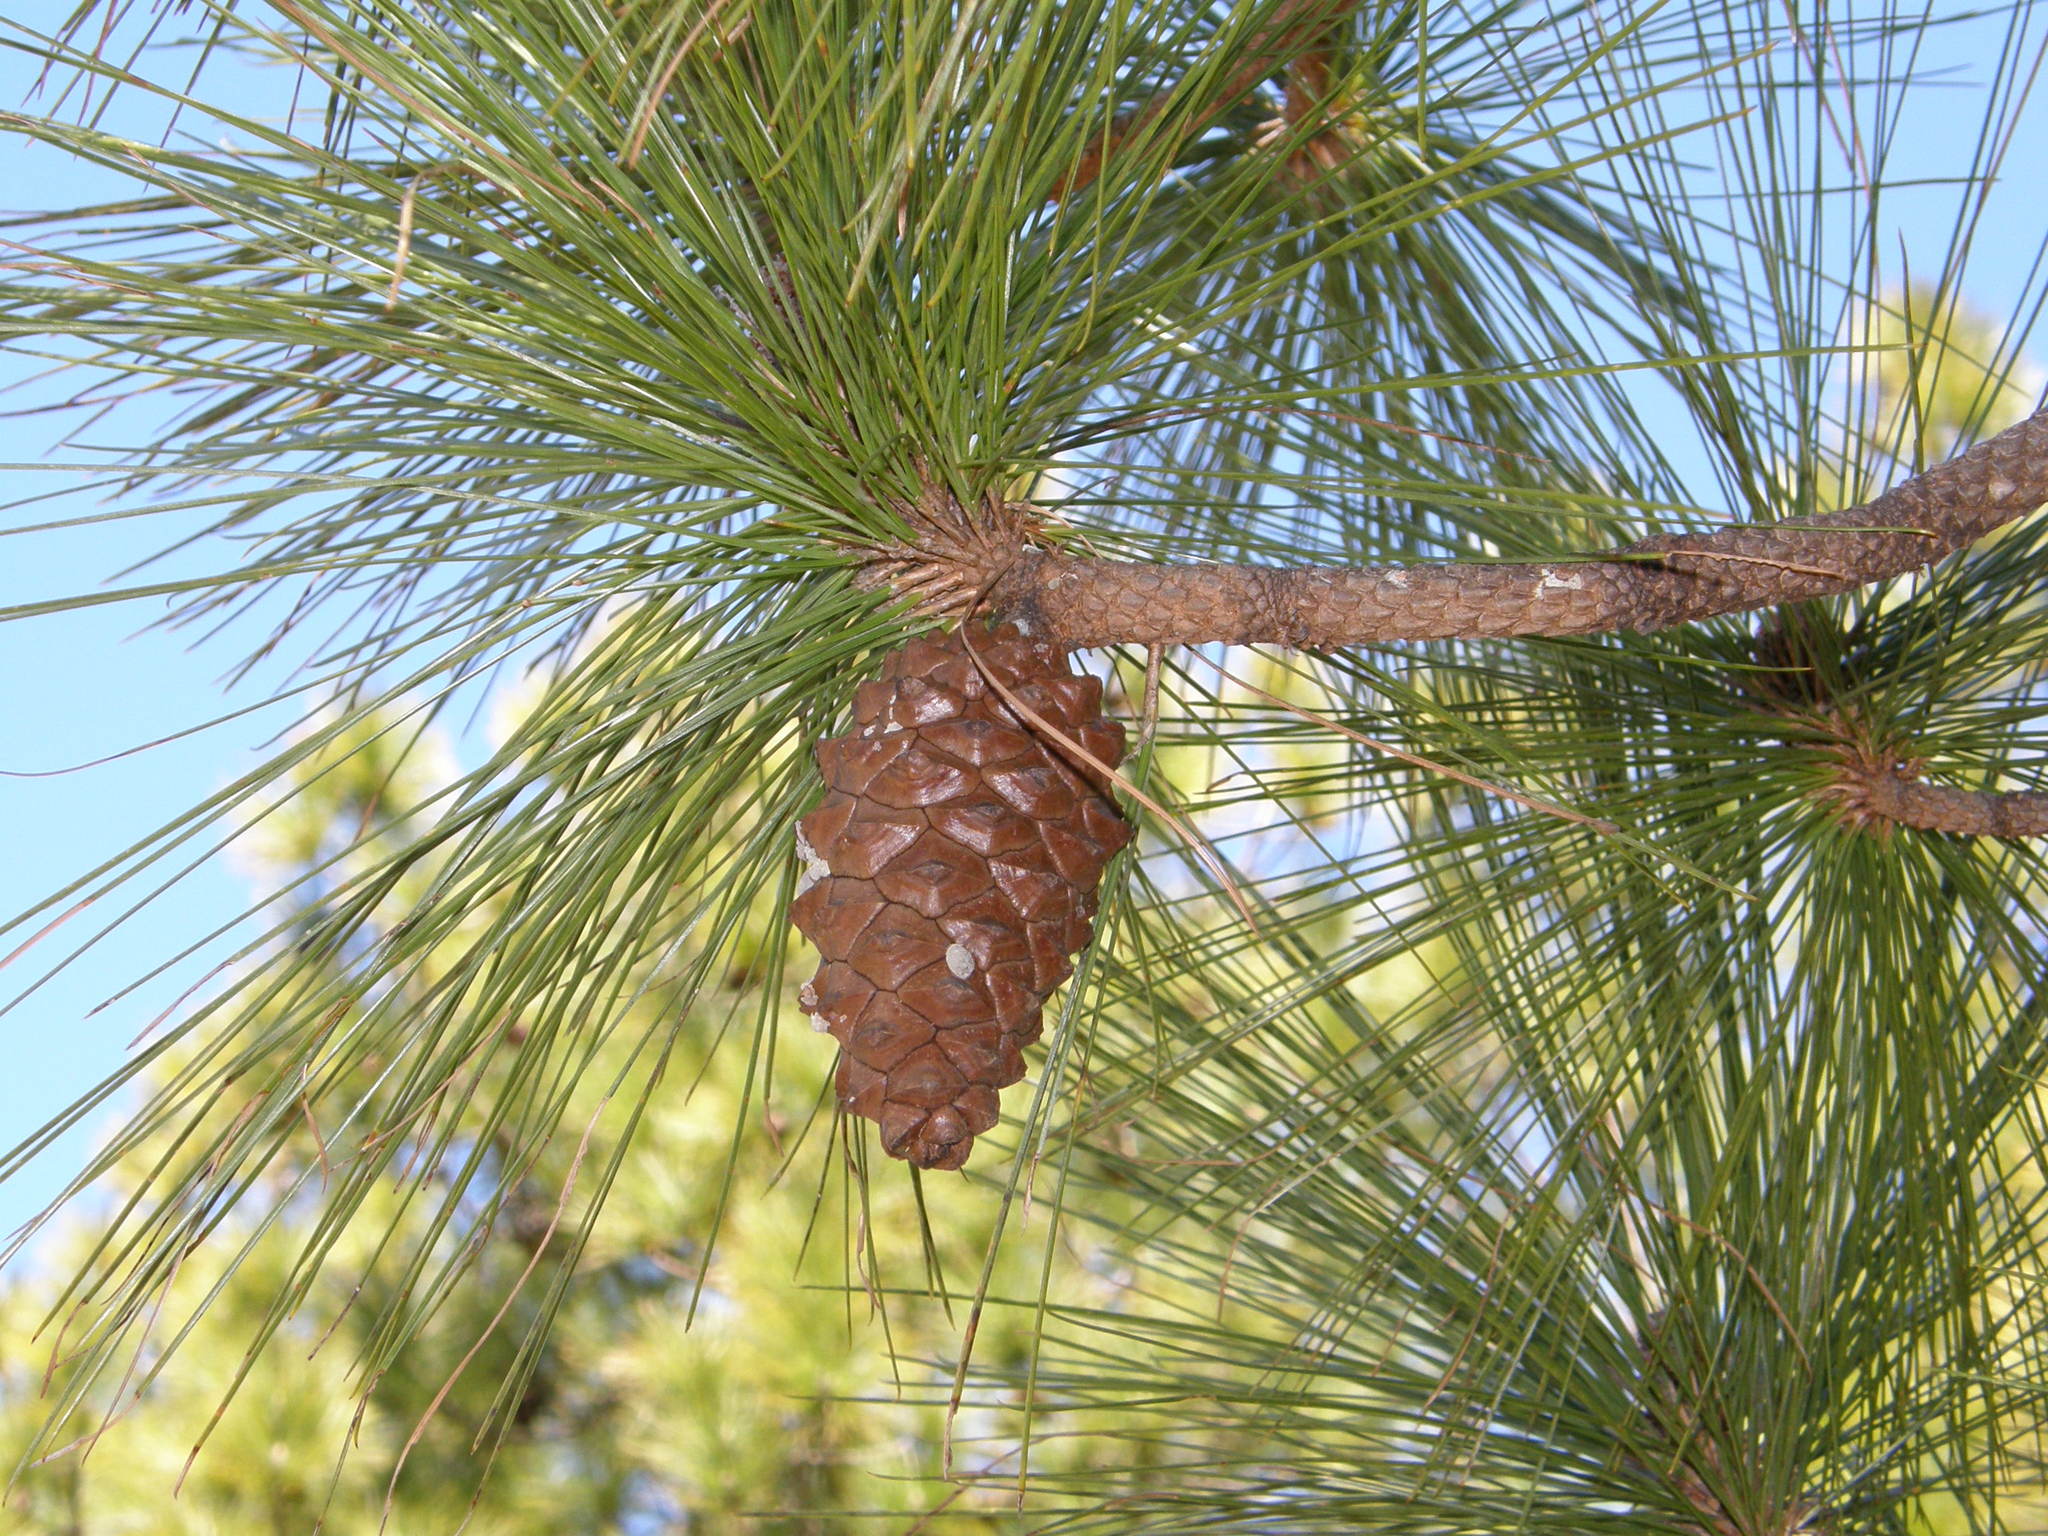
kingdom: Plantae
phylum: Tracheophyta
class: Pinopsida
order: Pinales
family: Pinaceae
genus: Pinus
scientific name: Pinus canariensis
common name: Canary islands pine
